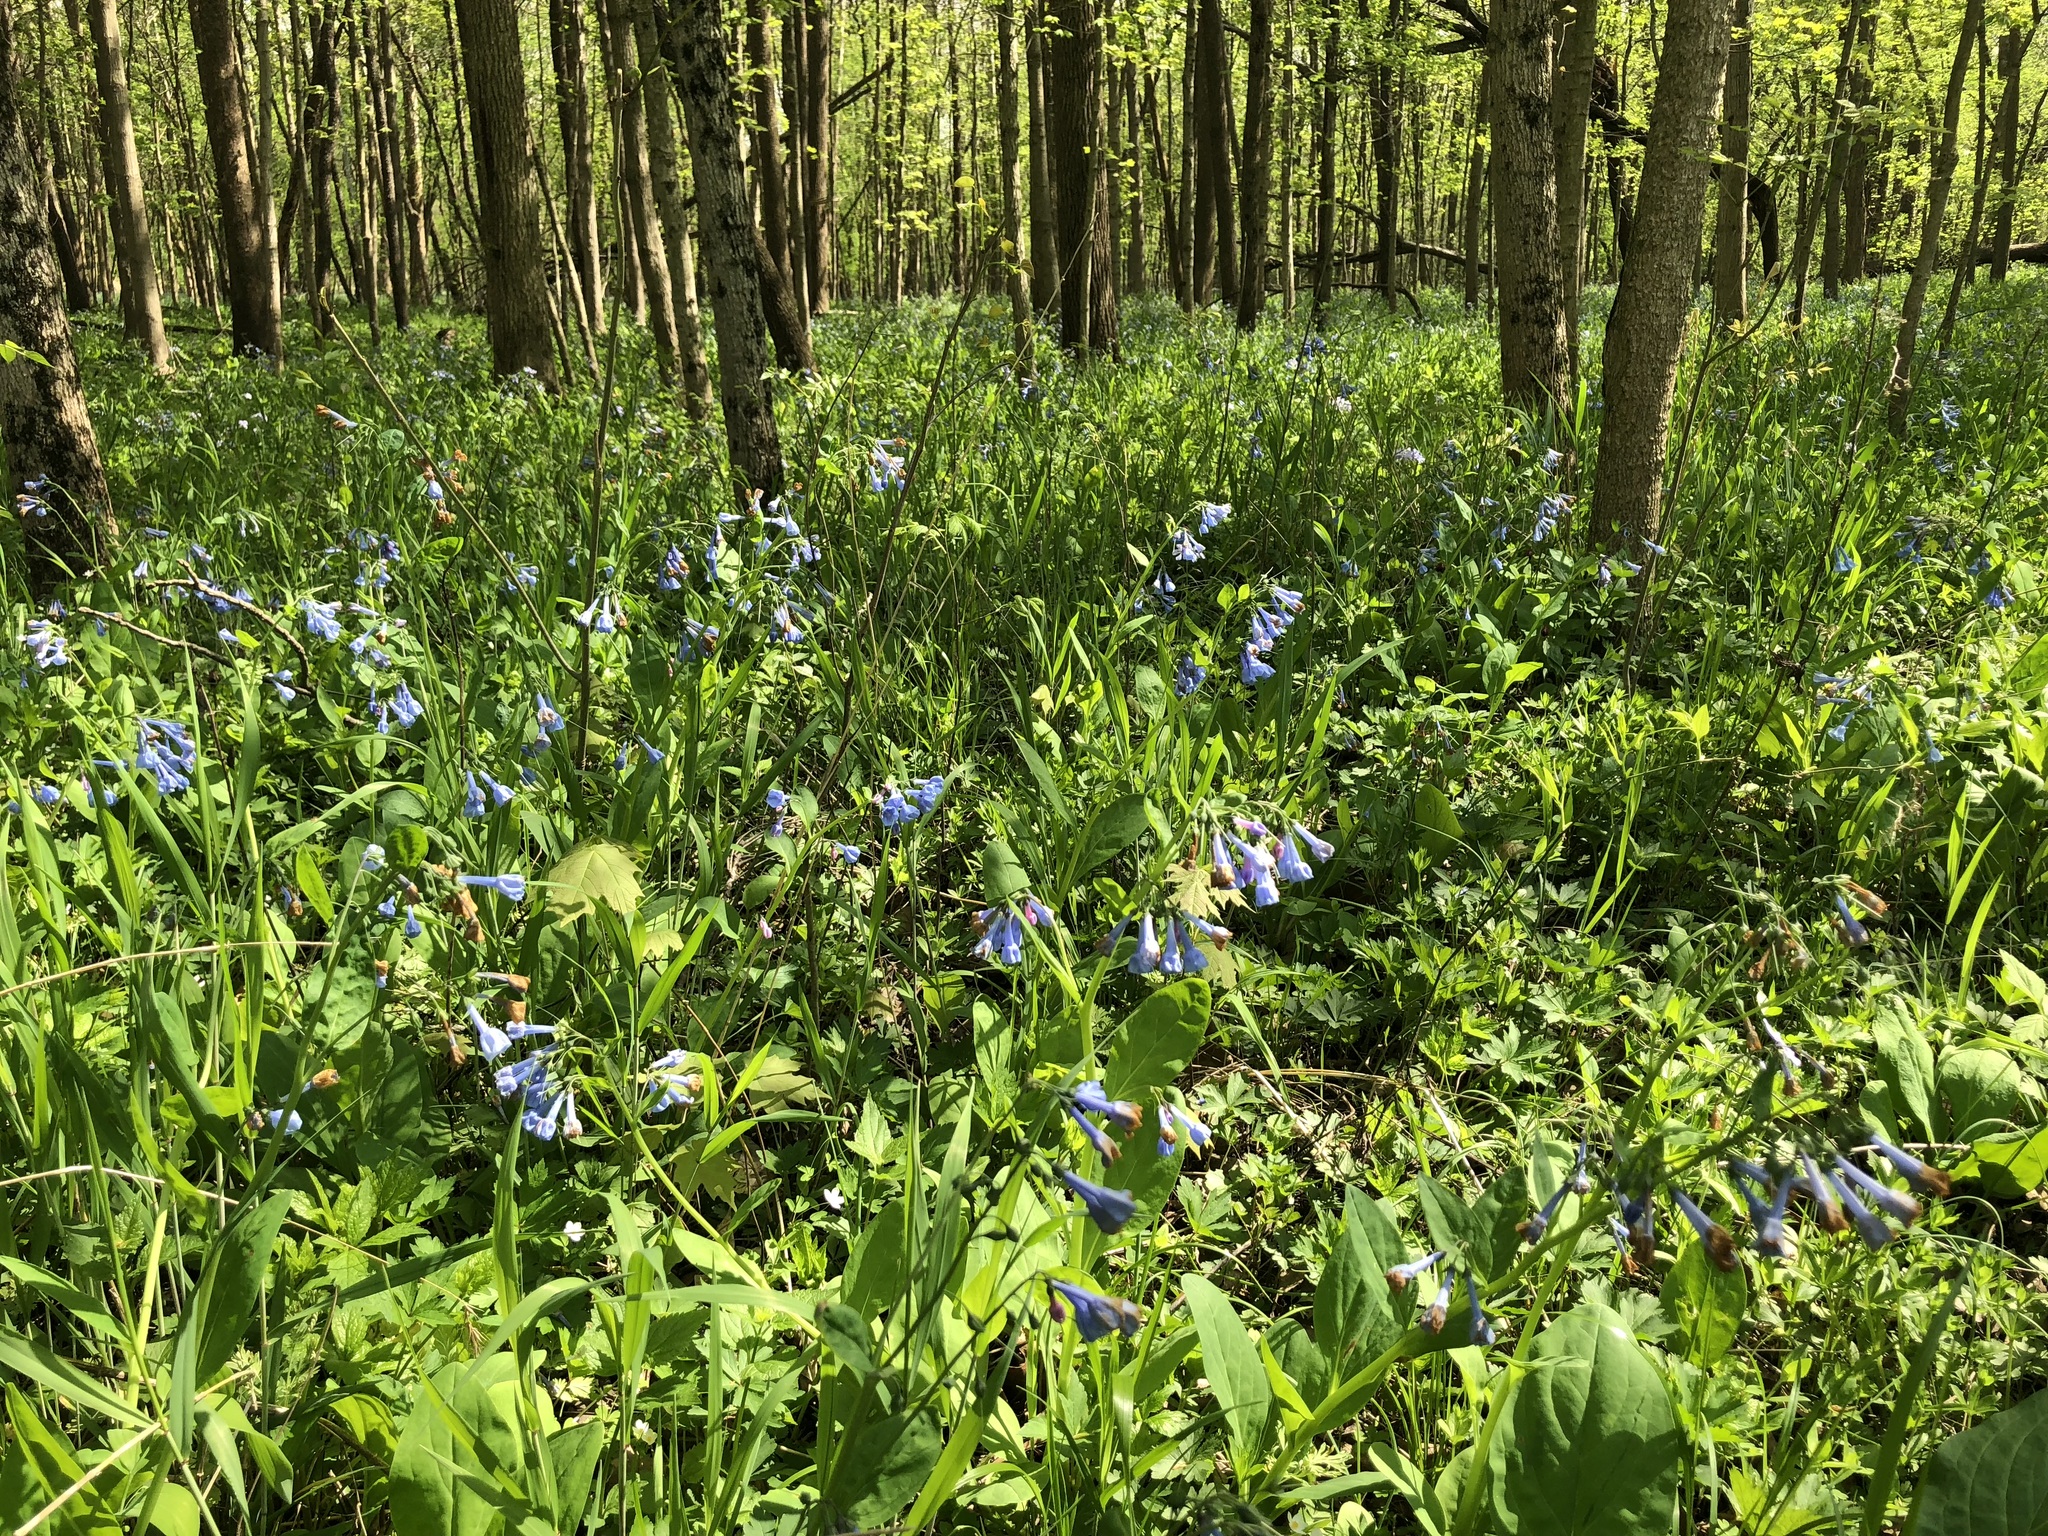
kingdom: Plantae
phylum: Tracheophyta
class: Magnoliopsida
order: Boraginales
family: Boraginaceae
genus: Mertensia
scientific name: Mertensia virginica
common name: Virginia bluebells
